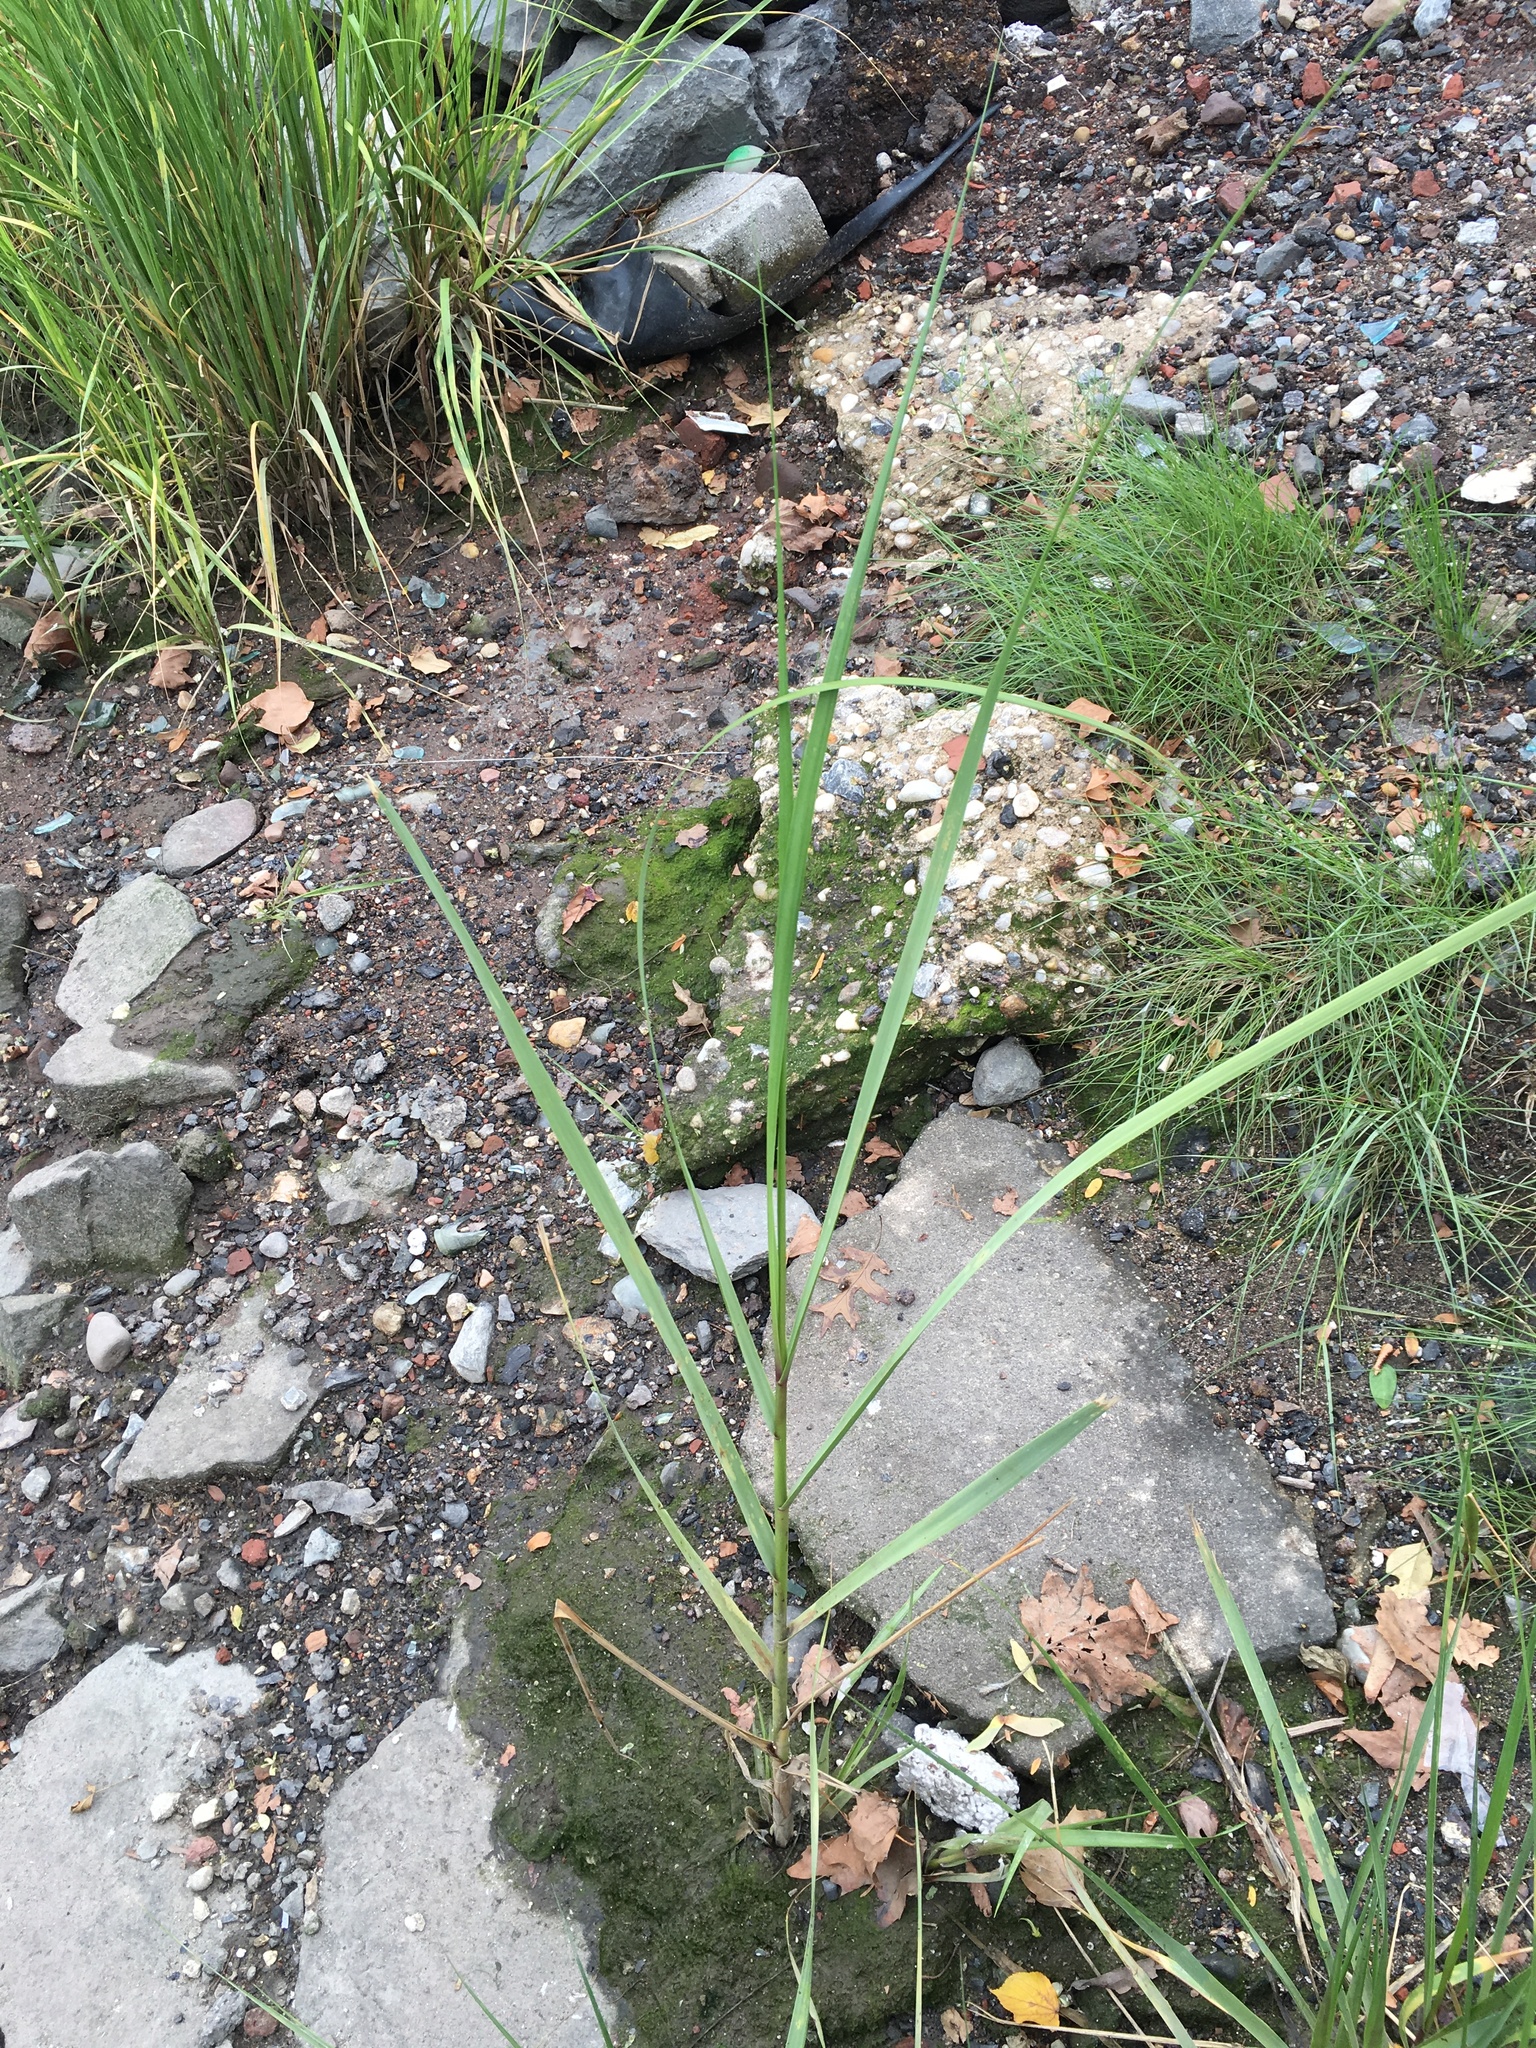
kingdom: Plantae
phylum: Tracheophyta
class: Liliopsida
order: Poales
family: Poaceae
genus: Phragmites
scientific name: Phragmites australis
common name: Common reed
